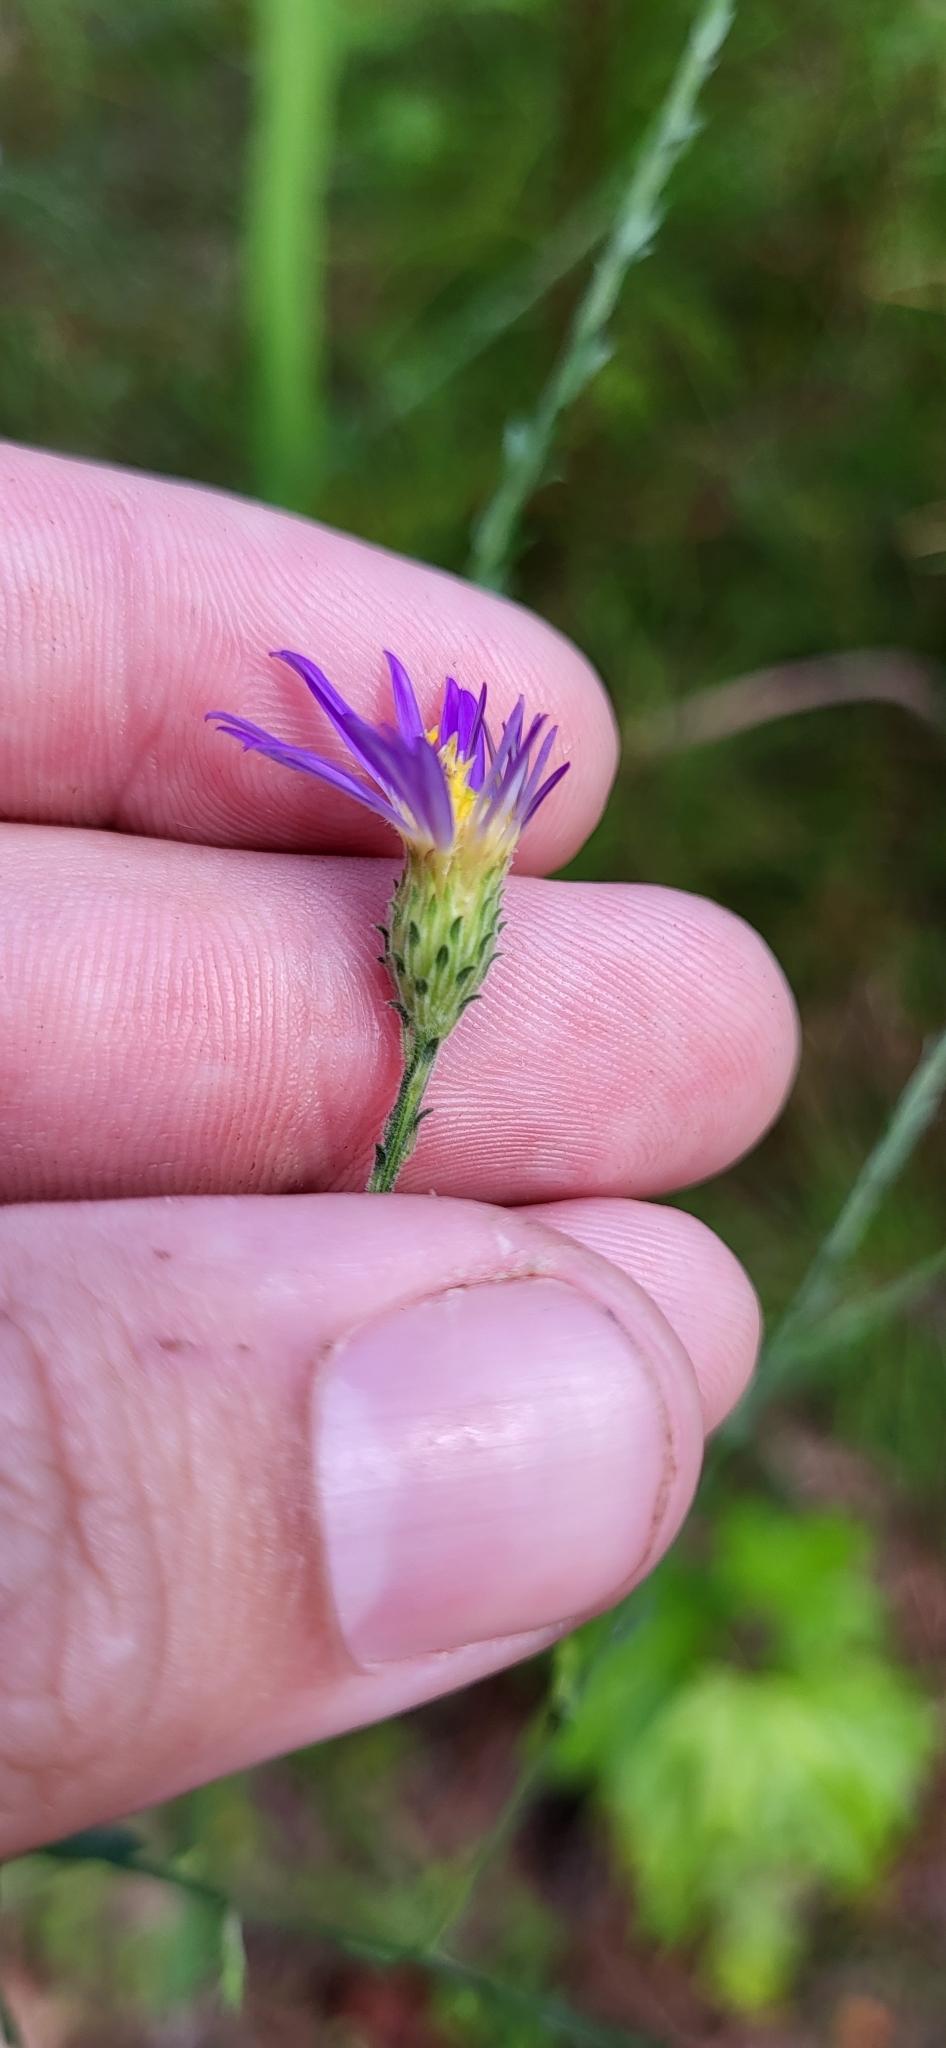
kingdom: Plantae
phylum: Tracheophyta
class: Magnoliopsida
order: Asterales
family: Asteraceae
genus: Symphyotrichum
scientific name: Symphyotrichum patens
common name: Late purple aster
